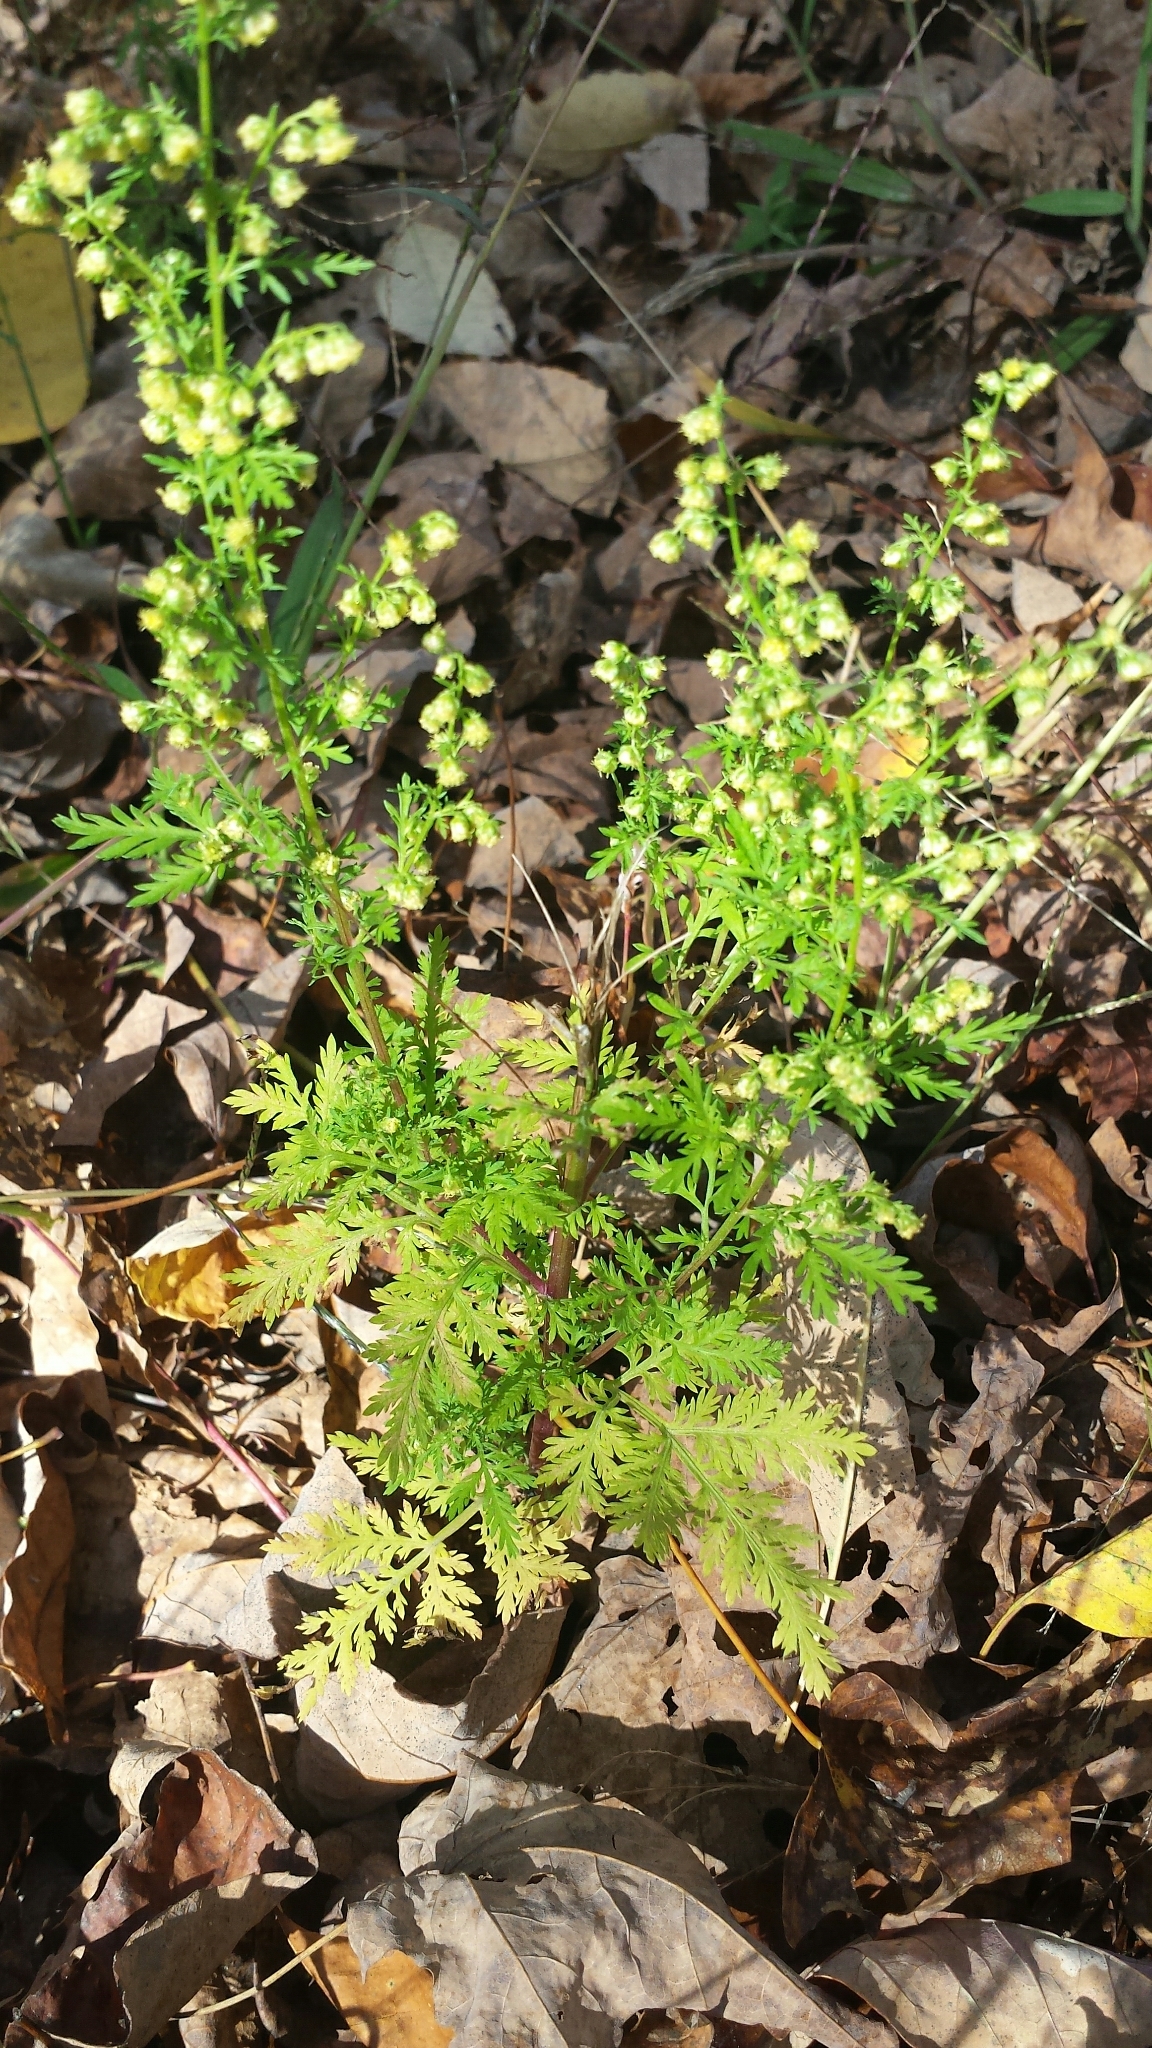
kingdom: Plantae
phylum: Tracheophyta
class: Magnoliopsida
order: Asterales
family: Asteraceae
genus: Artemisia
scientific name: Artemisia annua
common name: Sweet sagewort
